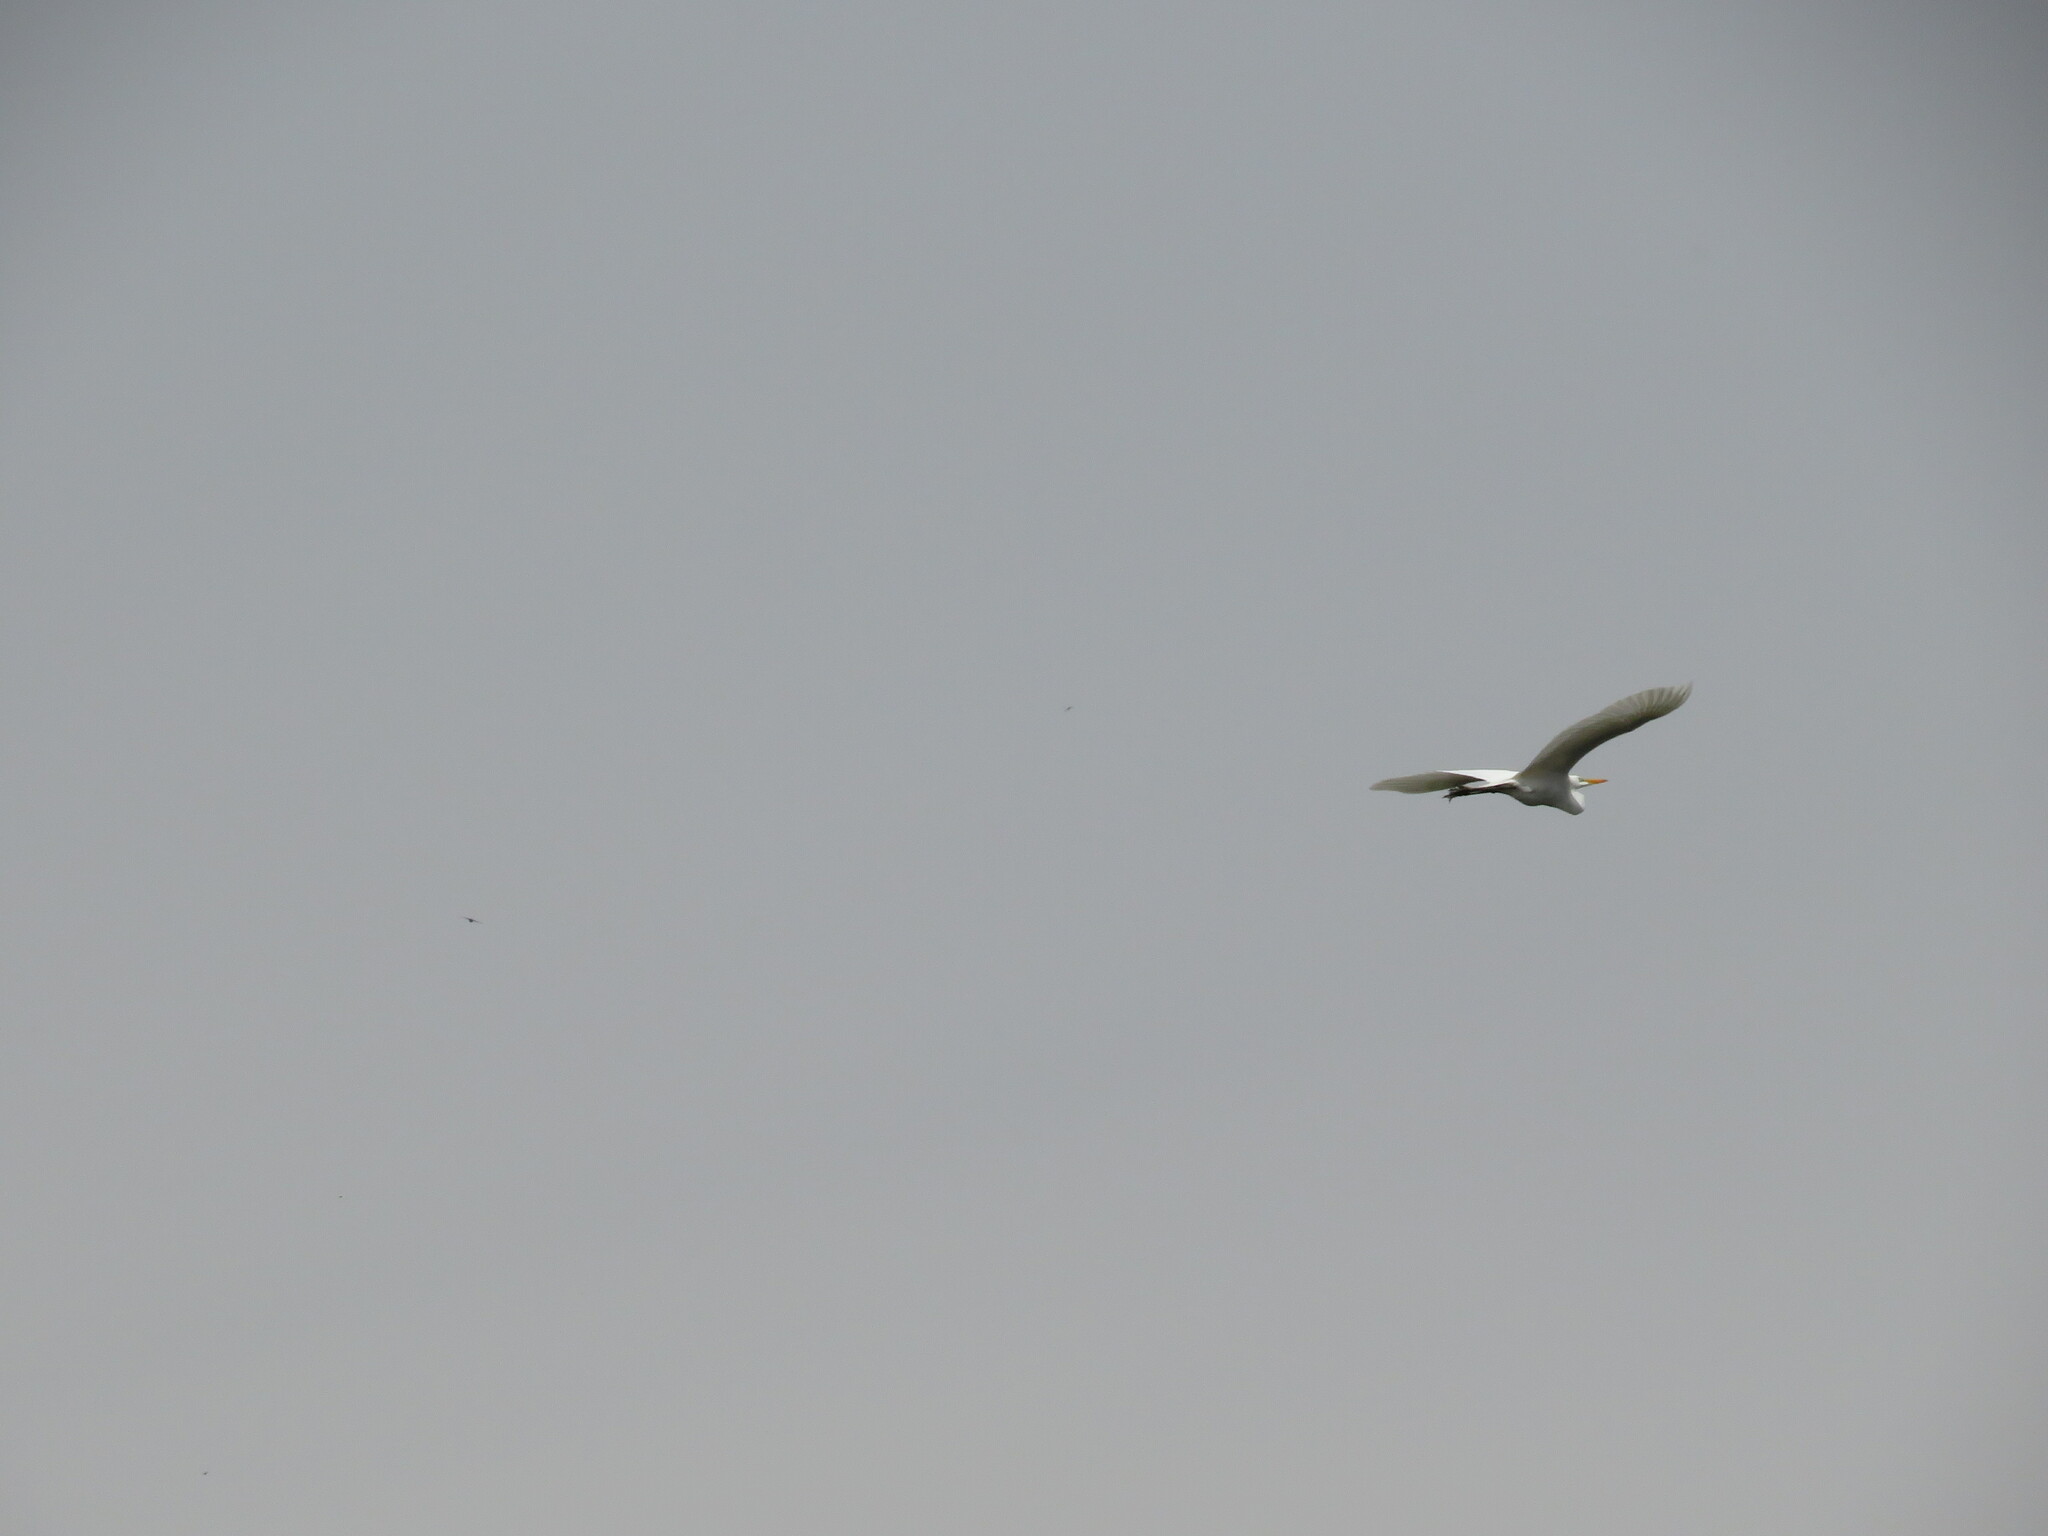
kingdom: Animalia
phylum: Chordata
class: Aves
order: Pelecaniformes
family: Ardeidae
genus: Ardea
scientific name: Ardea alba
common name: Great egret
